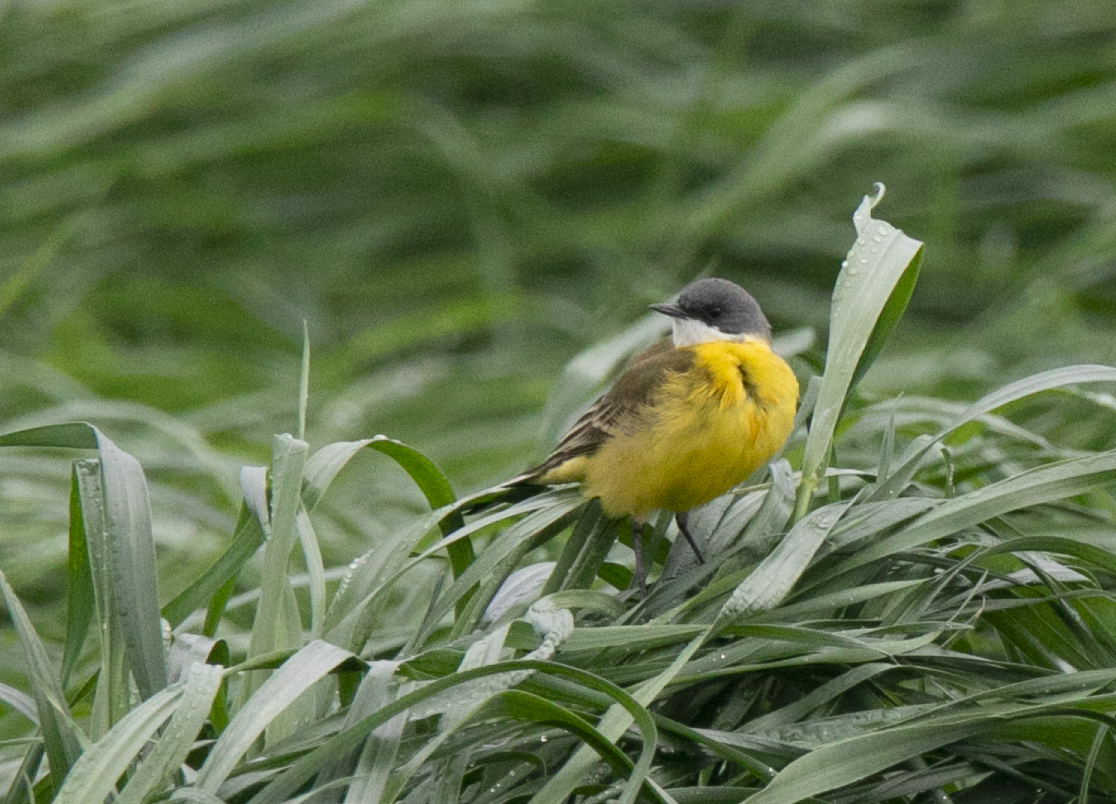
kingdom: Animalia
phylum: Chordata
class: Aves
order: Passeriformes
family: Motacillidae
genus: Motacilla
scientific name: Motacilla flava
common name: Western yellow wagtail
